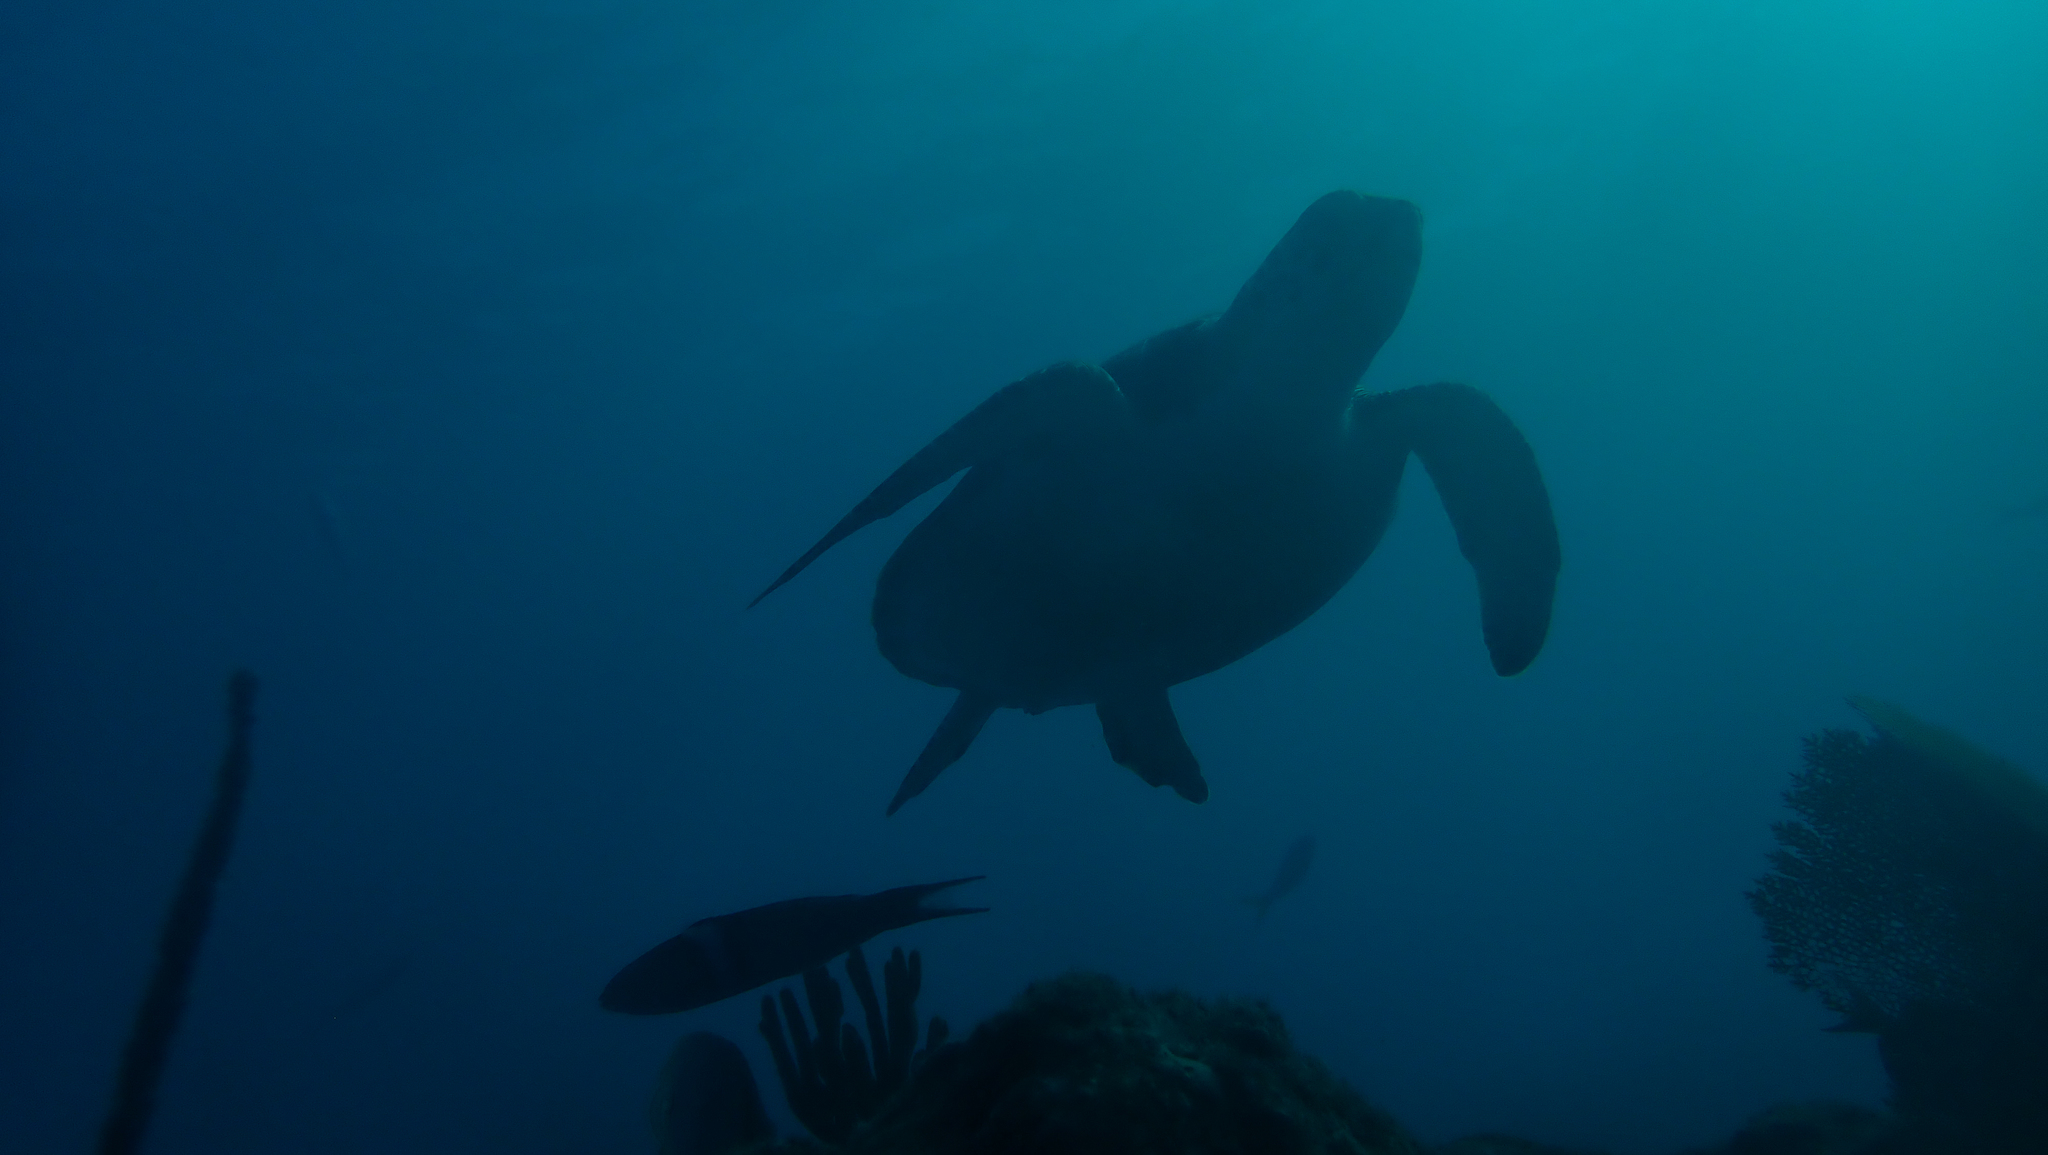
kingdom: Animalia
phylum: Chordata
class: Testudines
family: Cheloniidae
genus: Caretta
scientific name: Caretta caretta
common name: Loggerhead sea turtle
